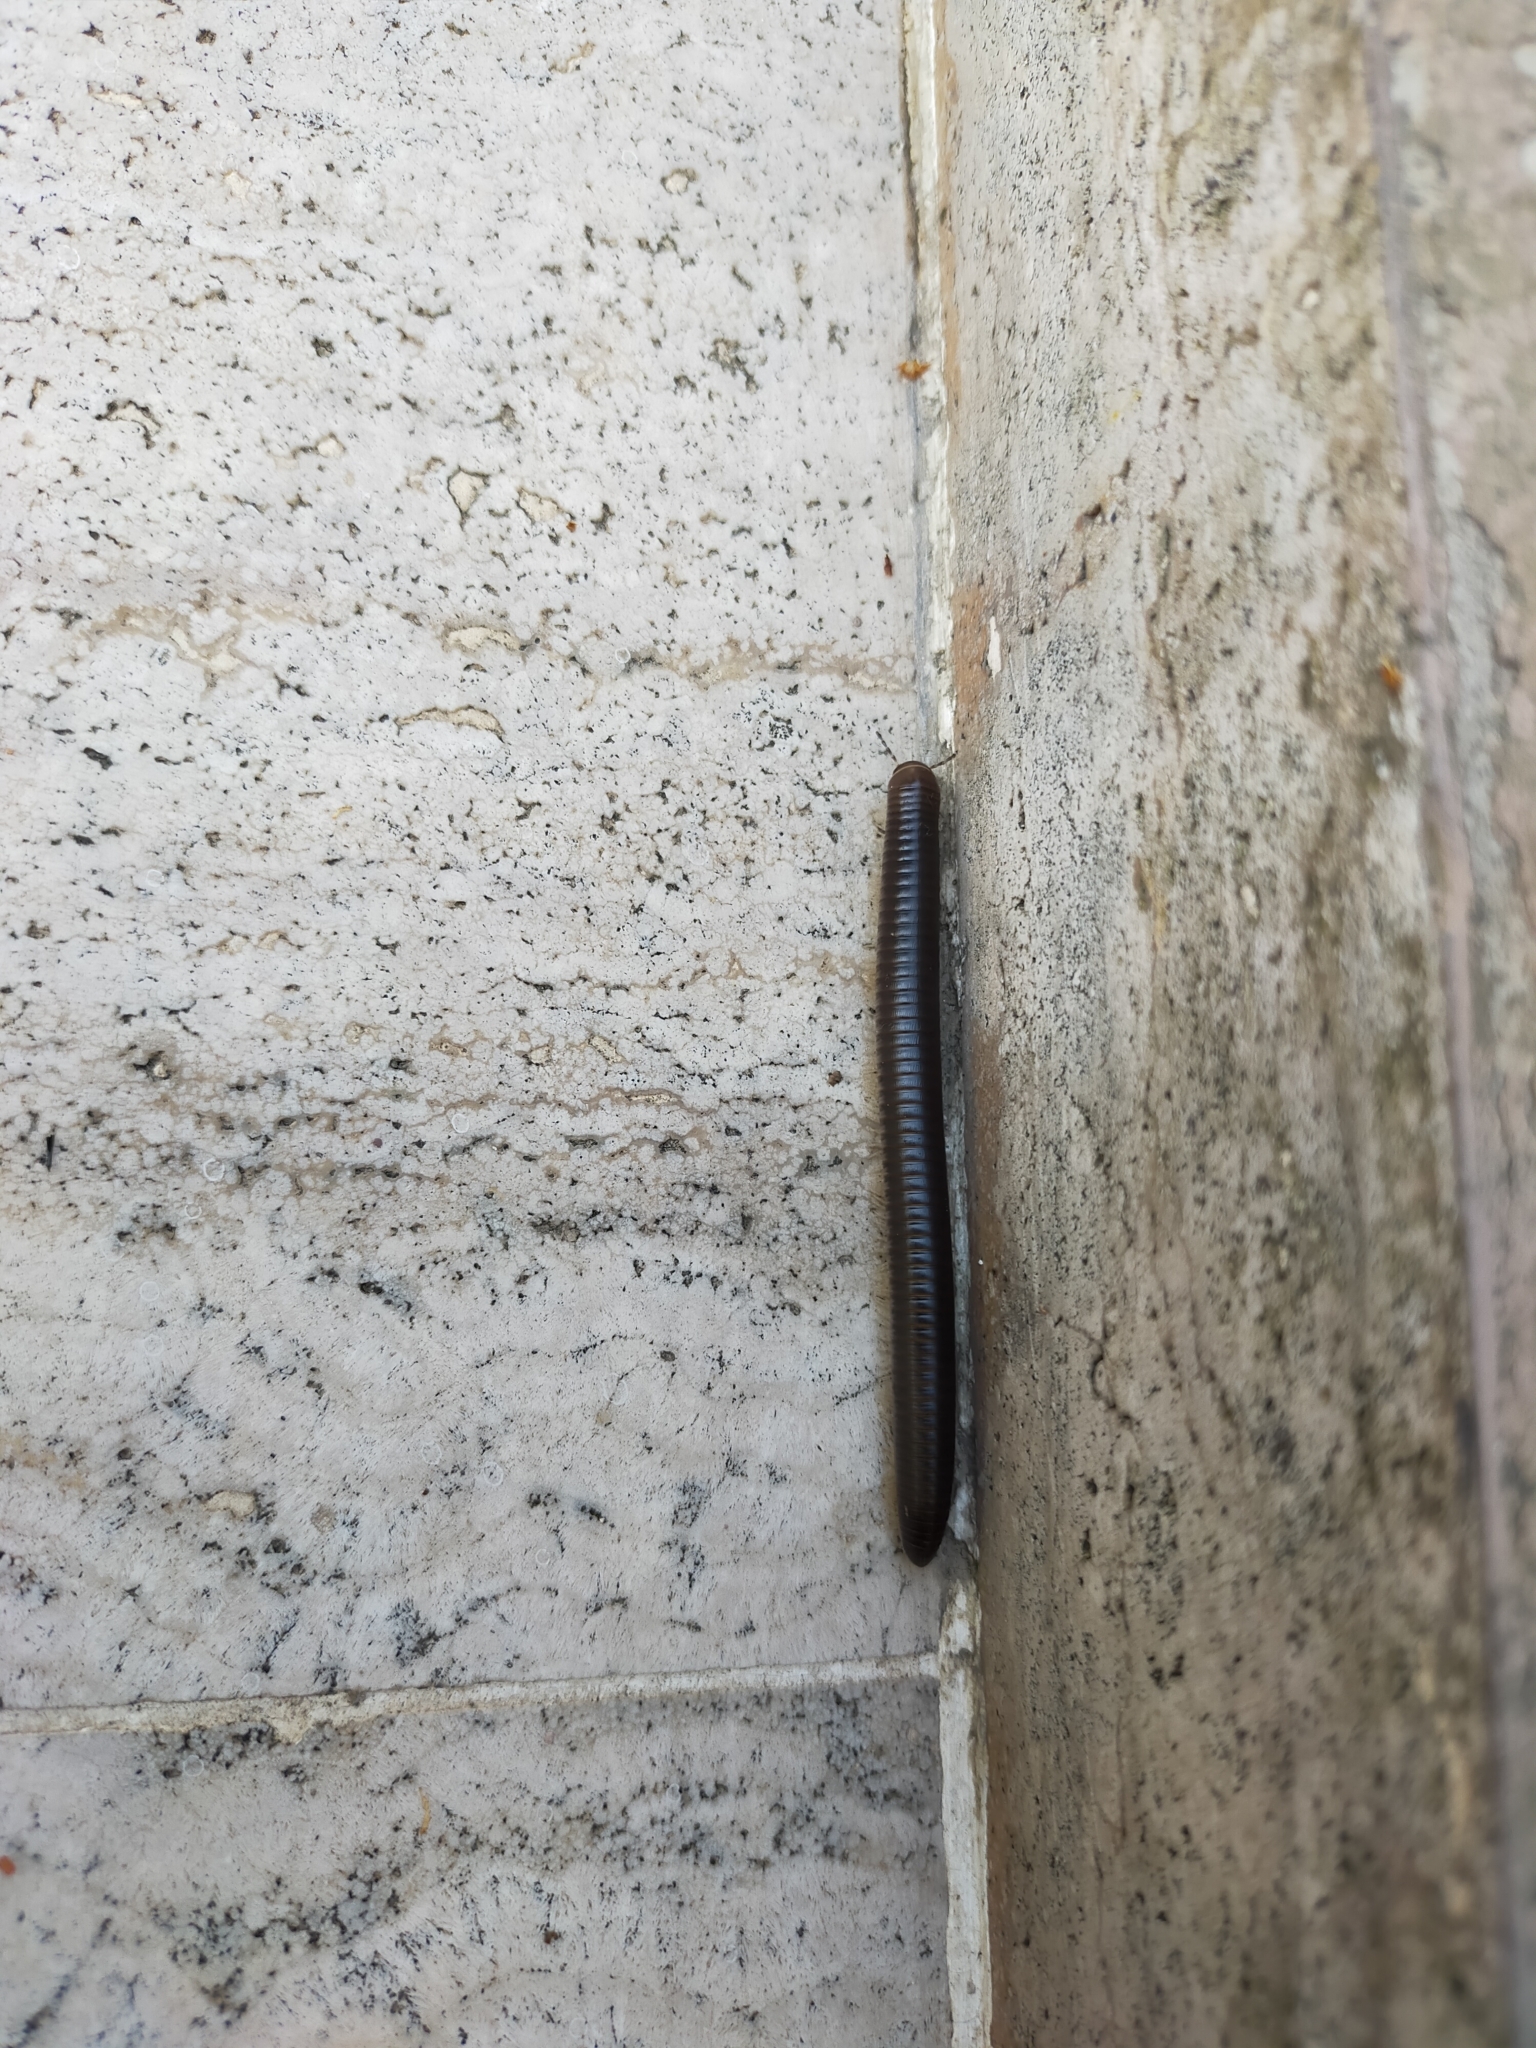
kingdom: Animalia
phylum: Arthropoda
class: Diplopoda
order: Julida
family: Julidae
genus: Pachyiulus
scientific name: Pachyiulus flavipes
